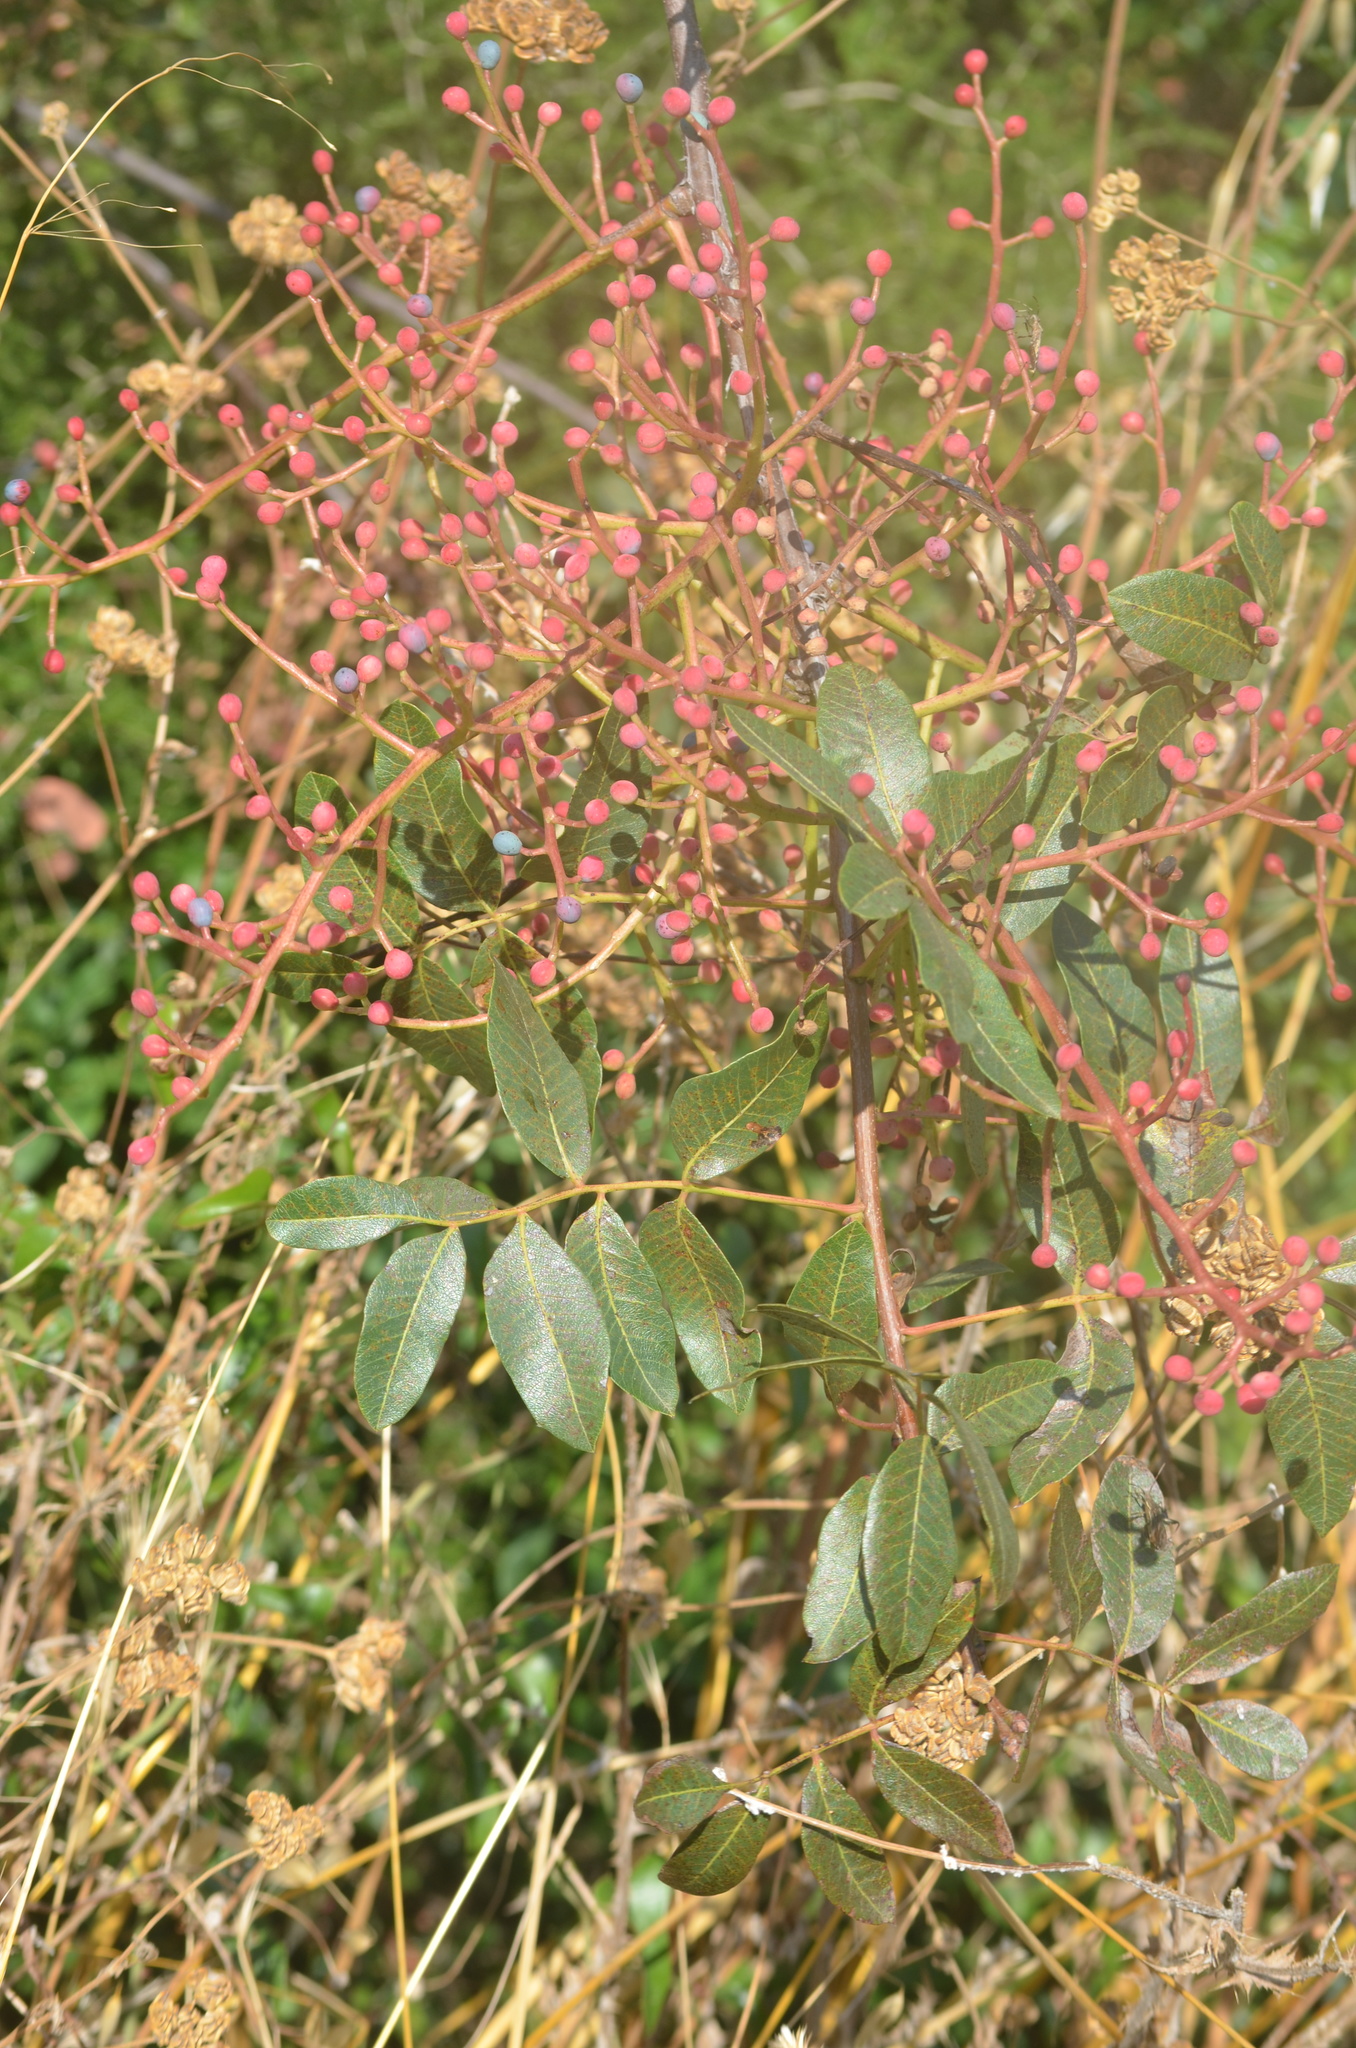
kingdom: Plantae
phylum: Tracheophyta
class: Magnoliopsida
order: Sapindales
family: Anacardiaceae
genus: Pistacia
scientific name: Pistacia terebinthus
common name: Terebinth
